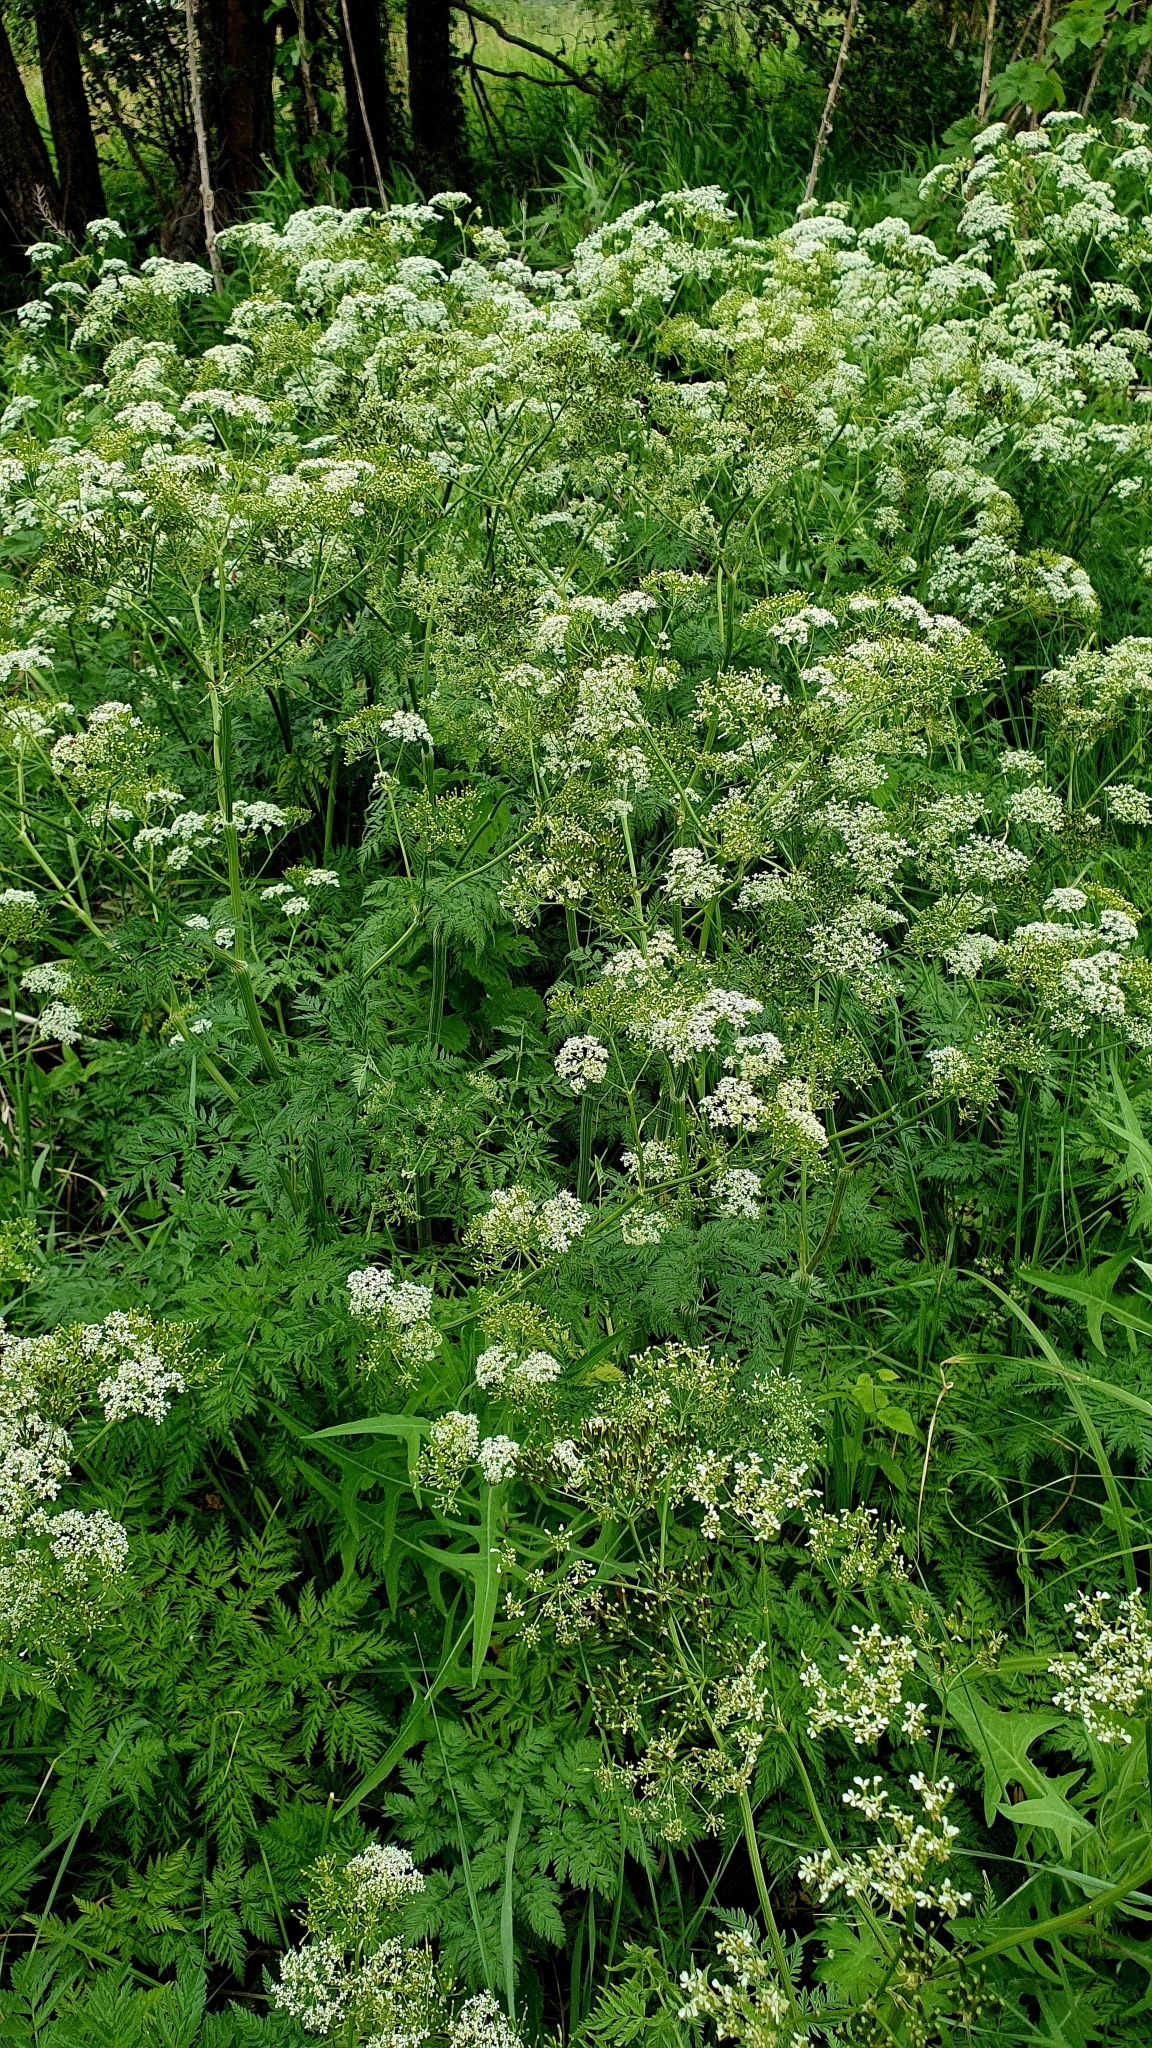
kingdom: Plantae
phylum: Tracheophyta
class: Magnoliopsida
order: Apiales
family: Apiaceae
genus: Anthriscus
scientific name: Anthriscus sylvestris
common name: Cow parsley
